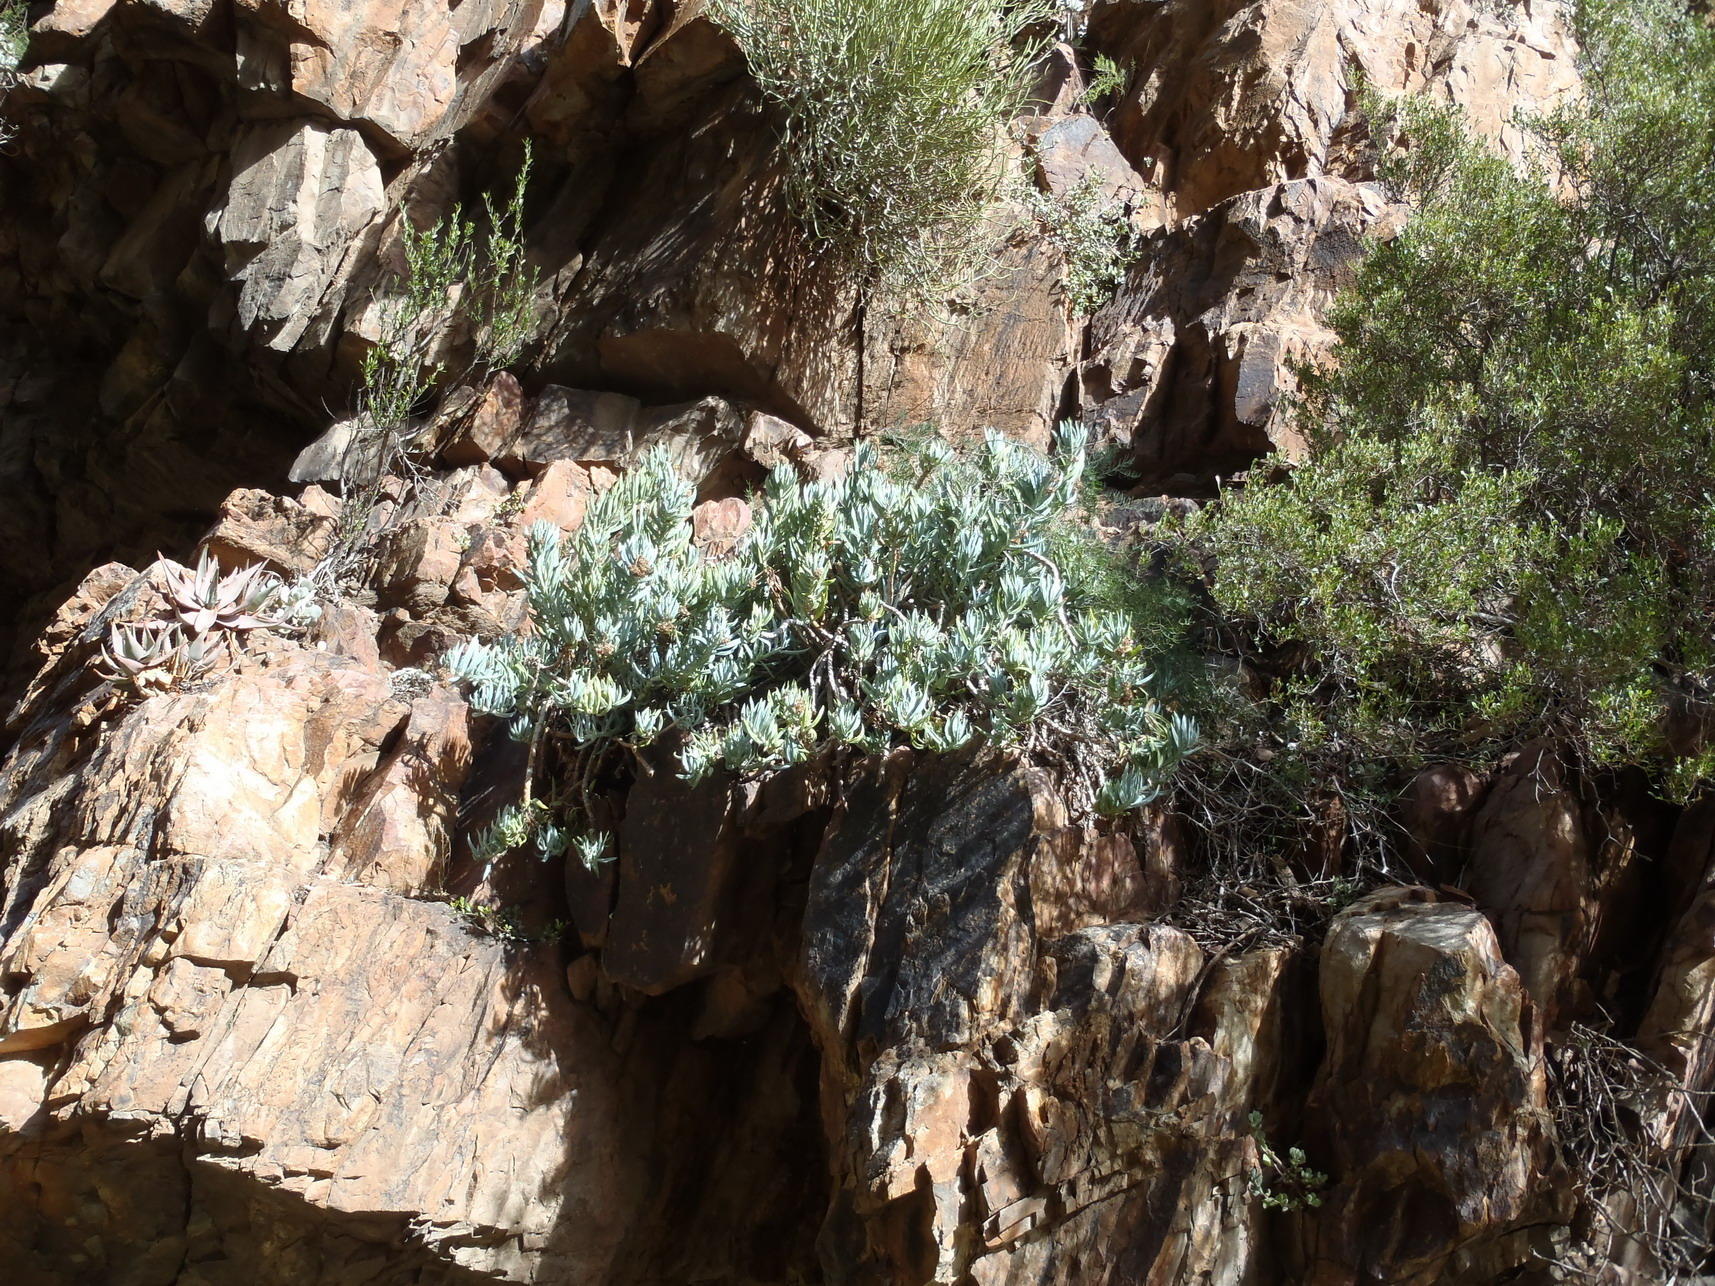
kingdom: Plantae
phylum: Tracheophyta
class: Magnoliopsida
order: Asterales
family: Asteraceae
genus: Curio
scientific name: Curio ficoides
